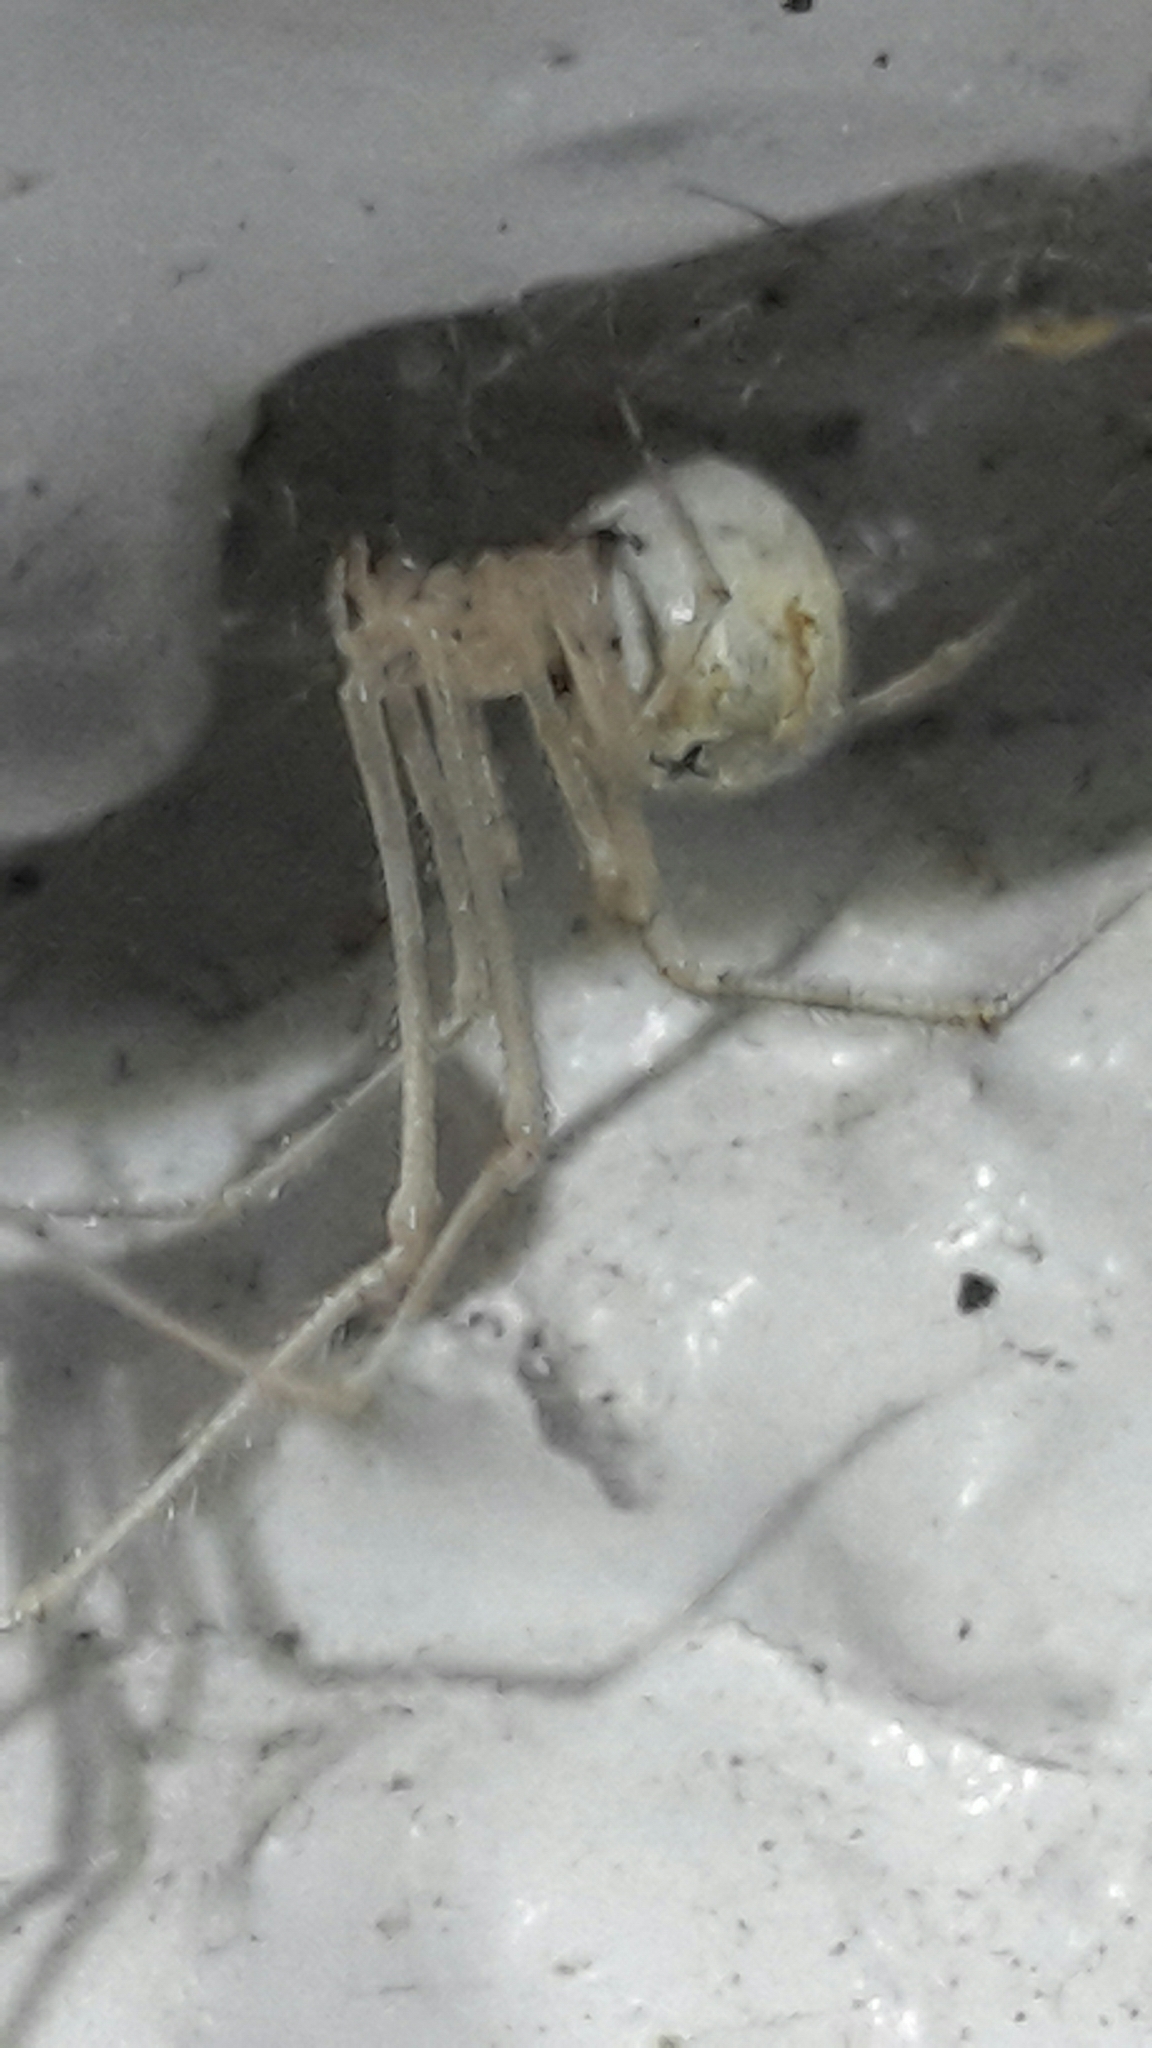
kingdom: Animalia
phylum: Arthropoda
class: Arachnida
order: Araneae
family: Theridiidae
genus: Cryptachaea
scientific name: Cryptachaea gigantipes
